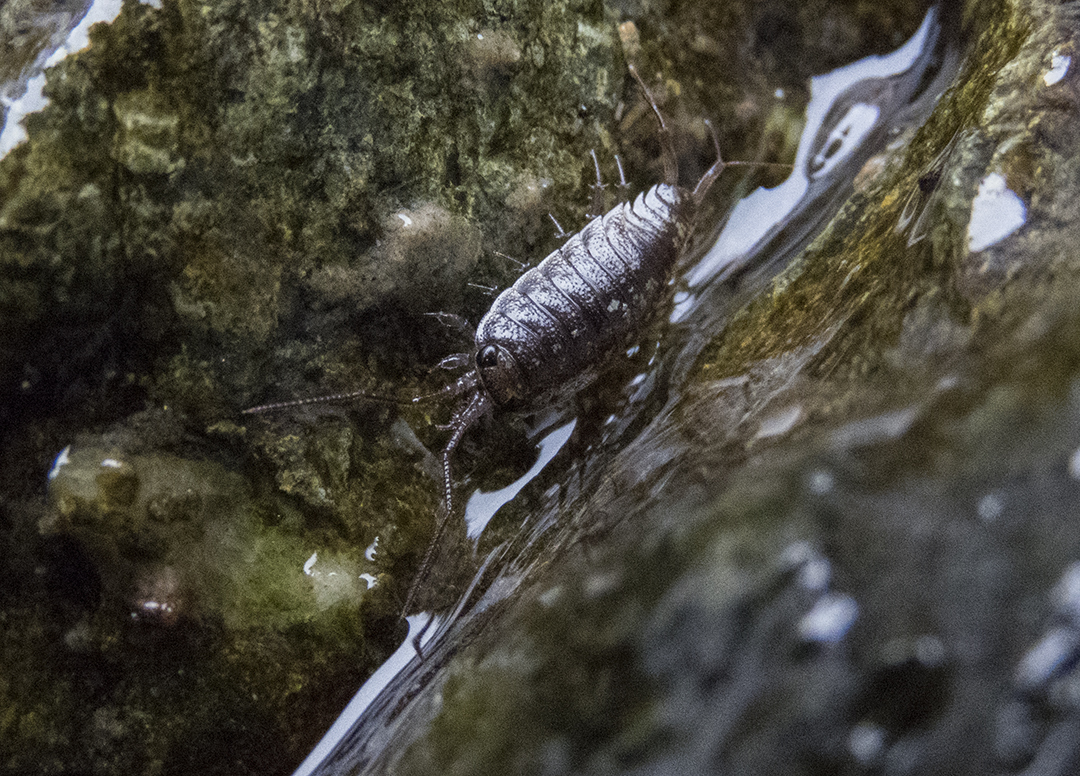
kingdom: Animalia
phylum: Arthropoda
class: Malacostraca
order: Isopoda
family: Ligiidae
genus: Ligia
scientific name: Ligia novizealandiae
